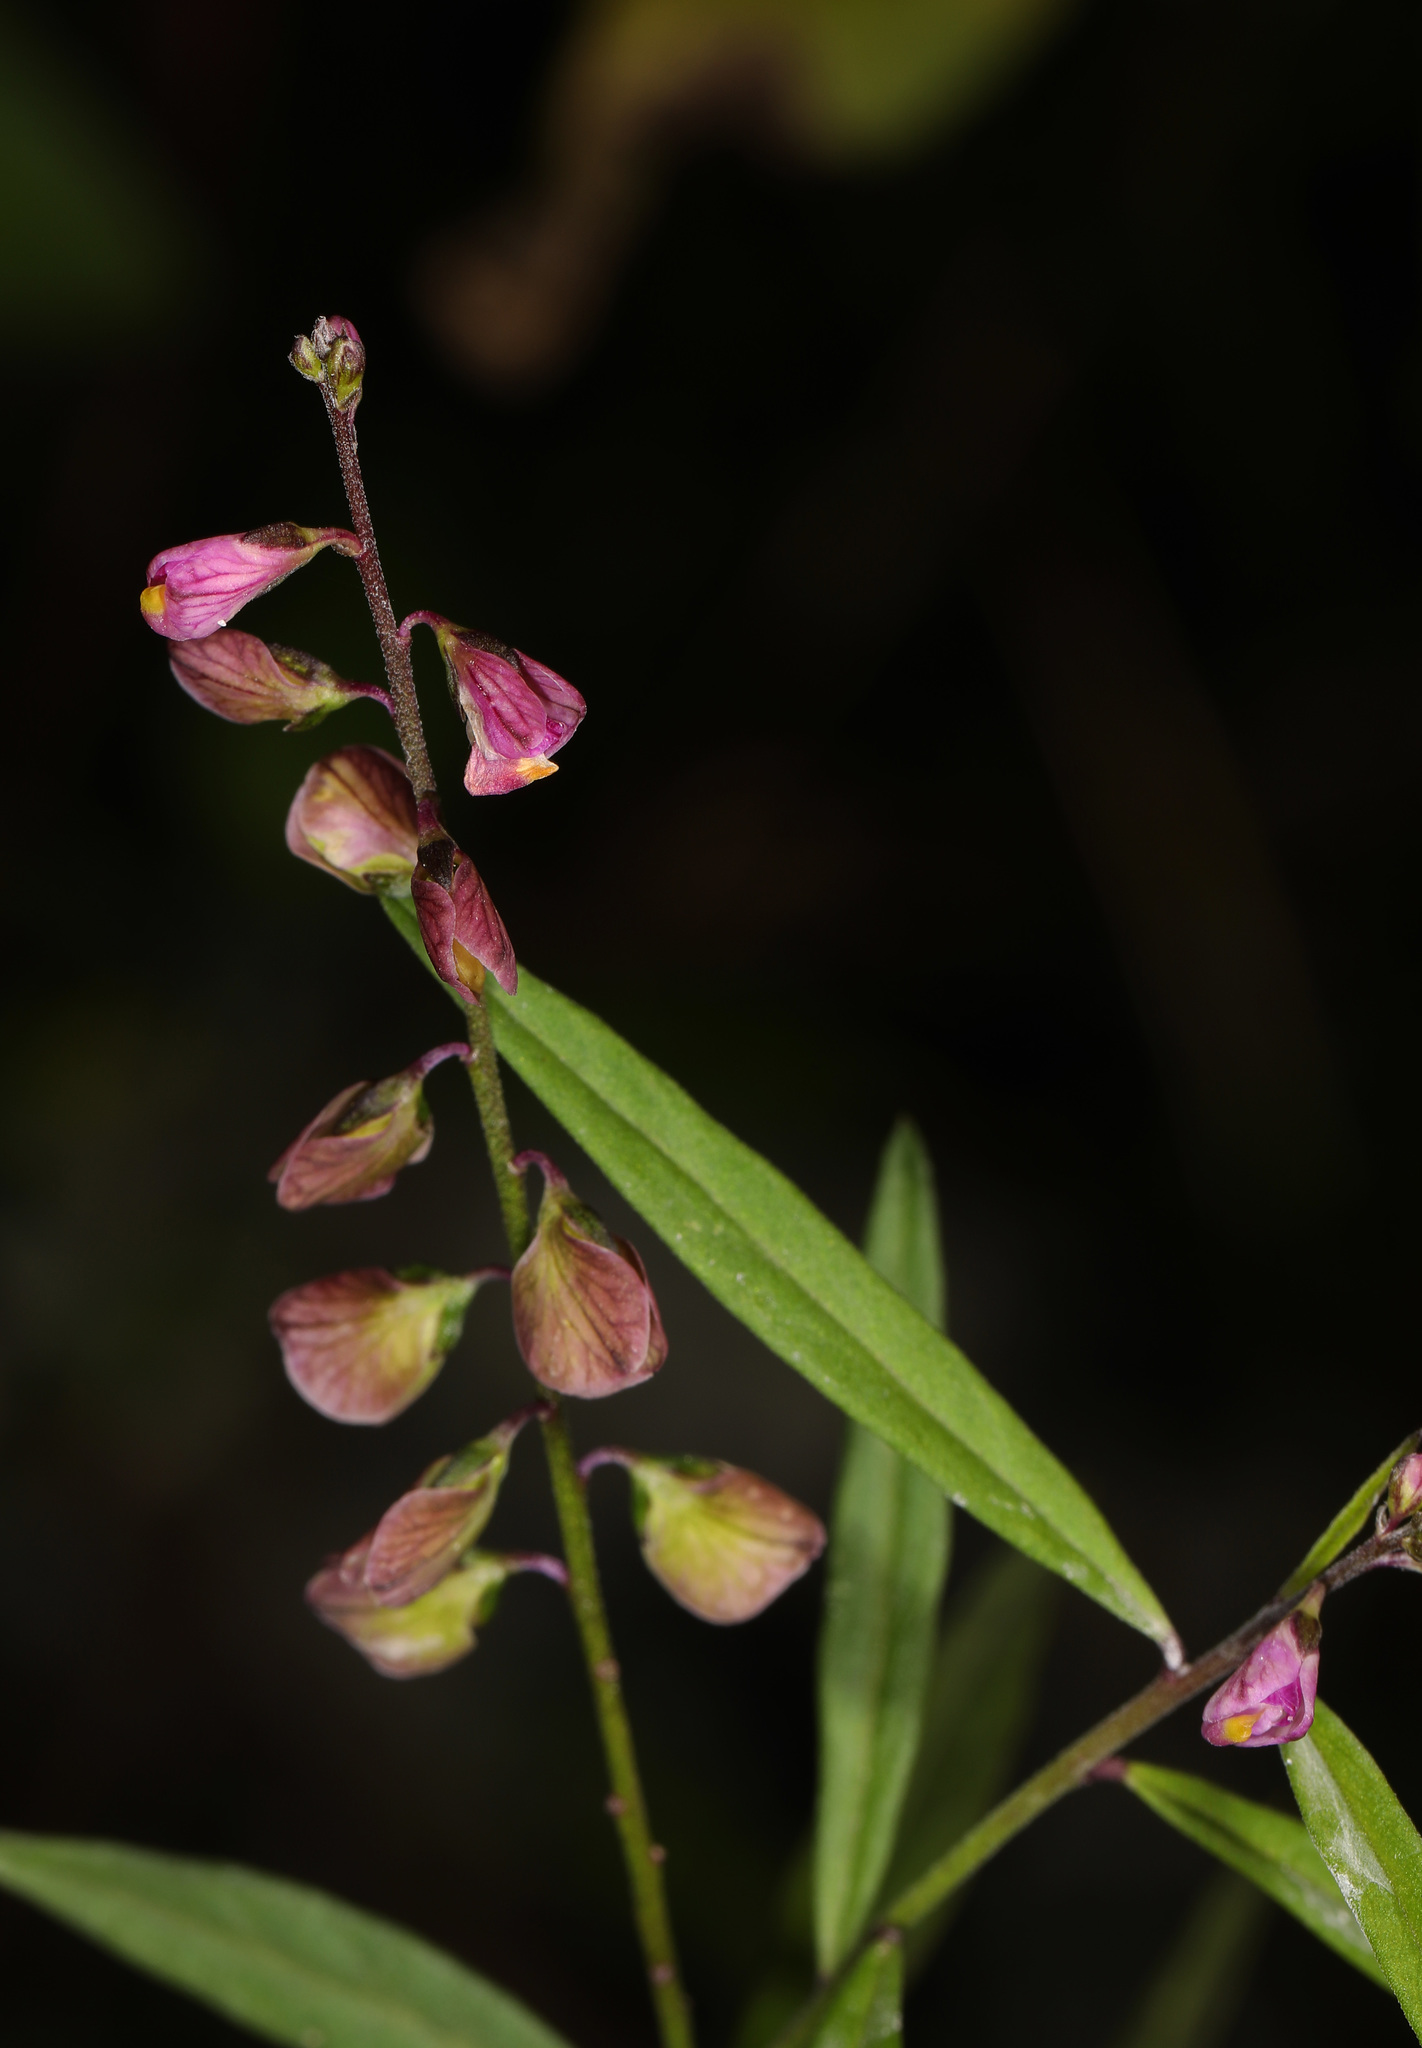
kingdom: Plantae
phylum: Tracheophyta
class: Magnoliopsida
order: Fabales
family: Polygalaceae
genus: Asemeia
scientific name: Asemeia grandiflora
